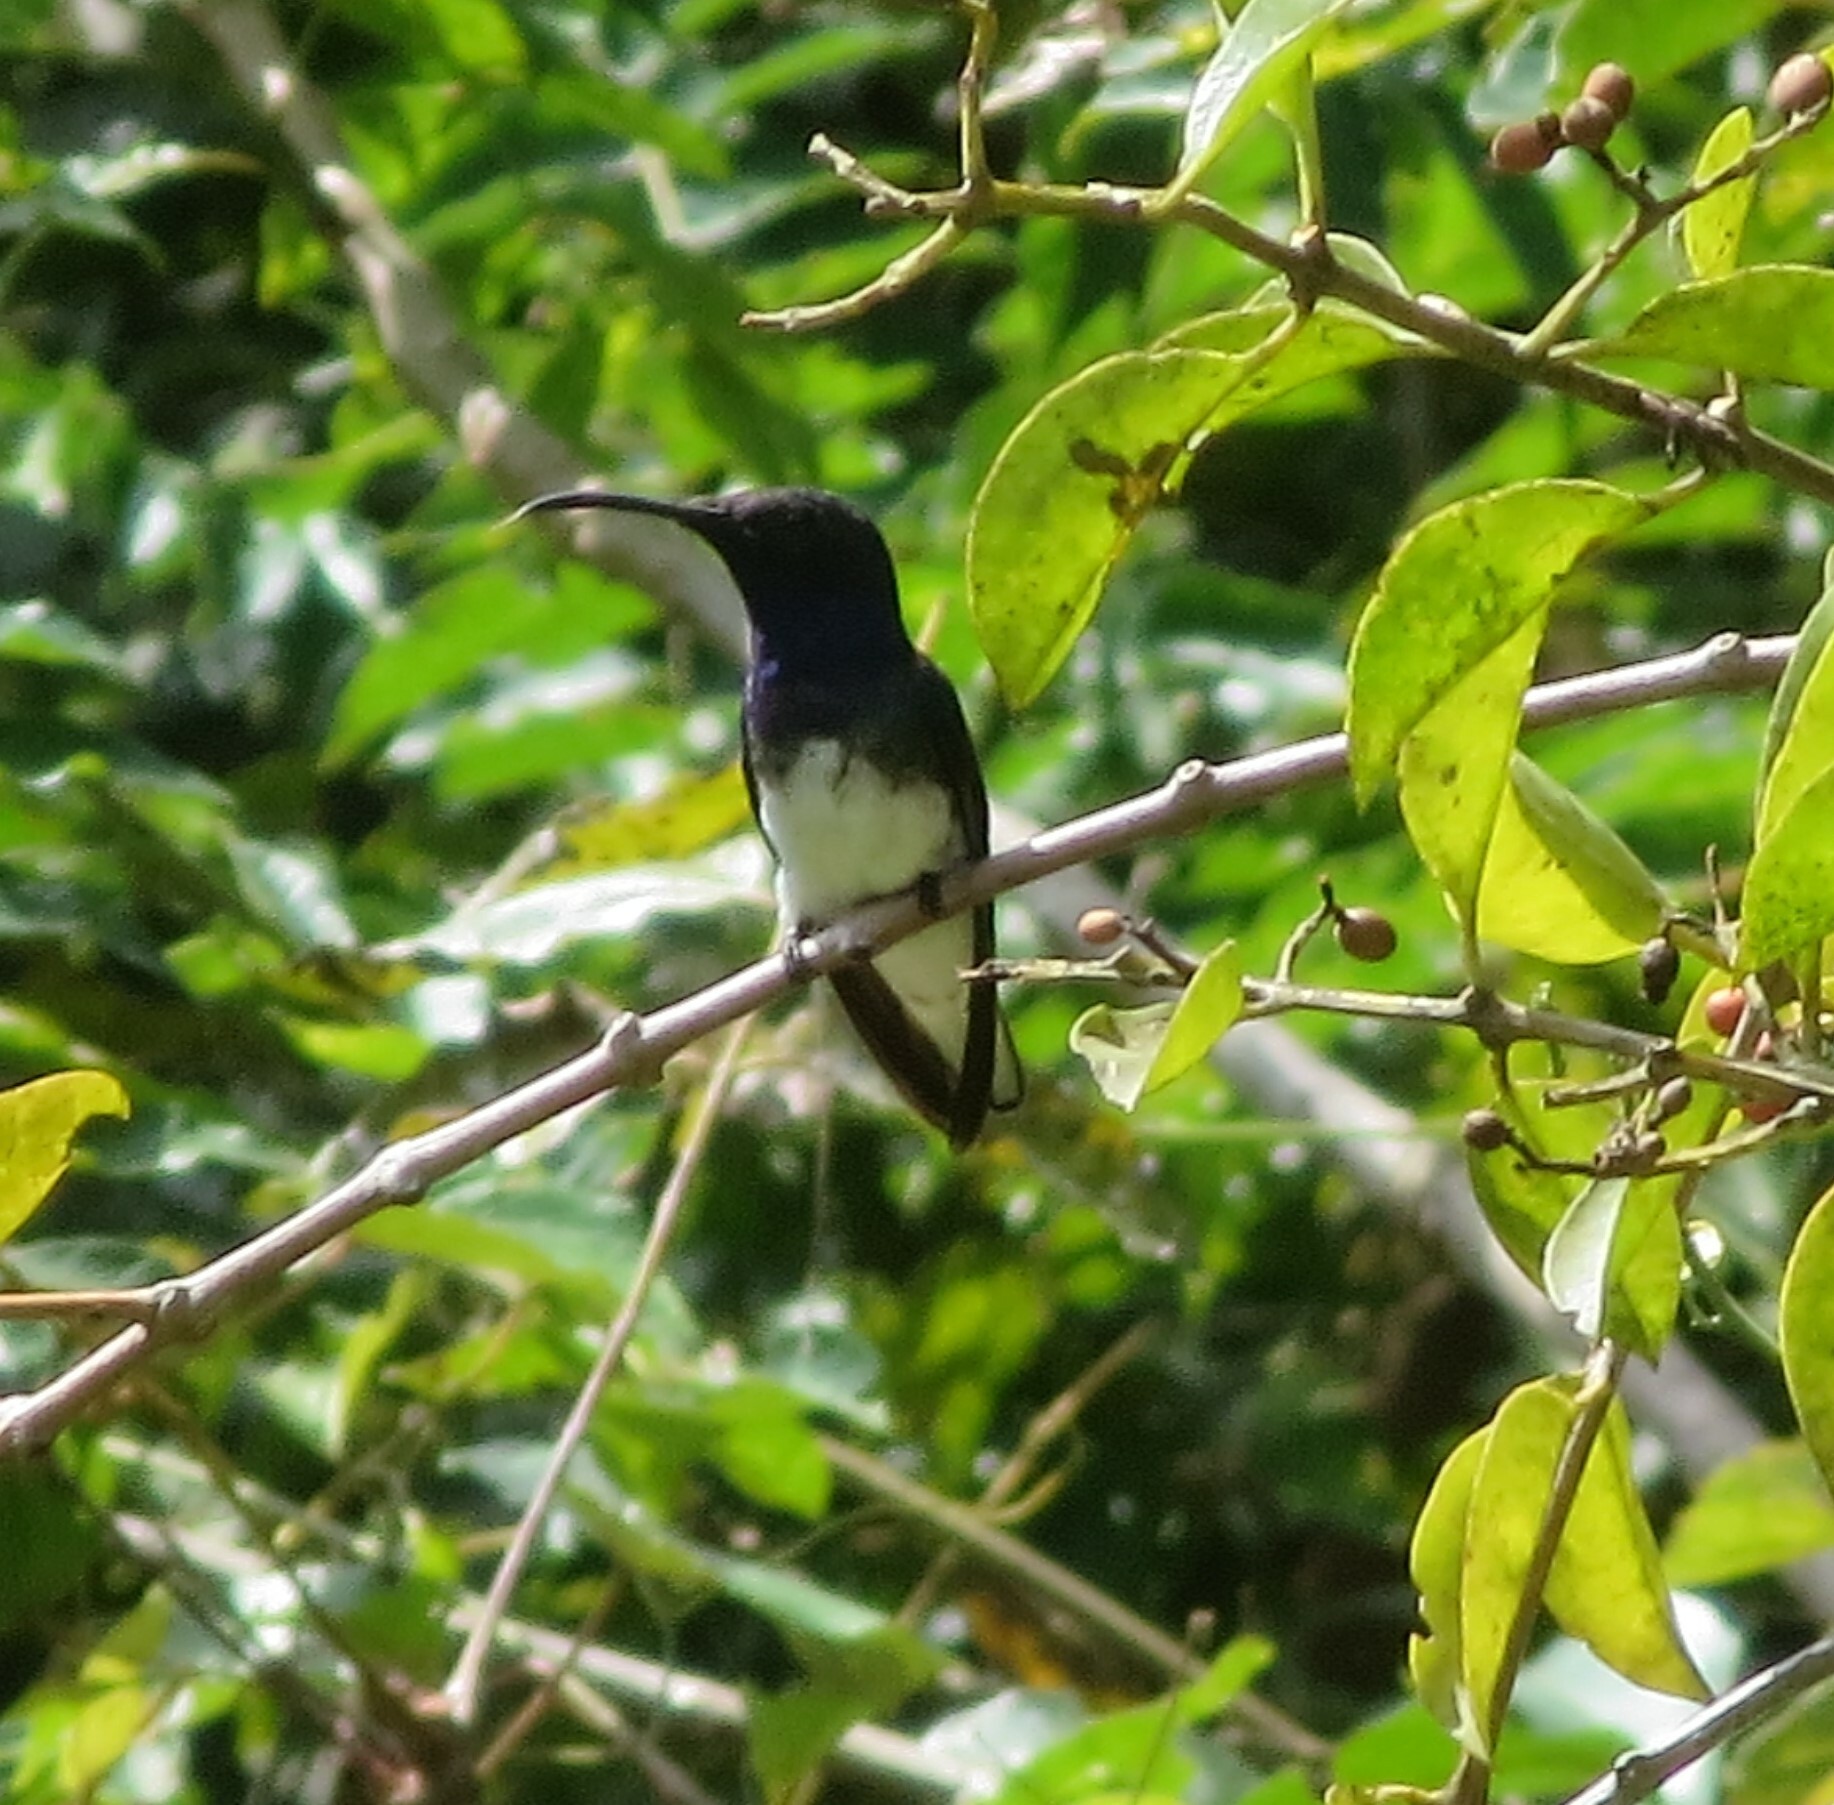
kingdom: Animalia
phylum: Chordata
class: Aves
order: Apodiformes
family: Trochilidae
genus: Florisuga
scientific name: Florisuga mellivora
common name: White-necked jacobin
